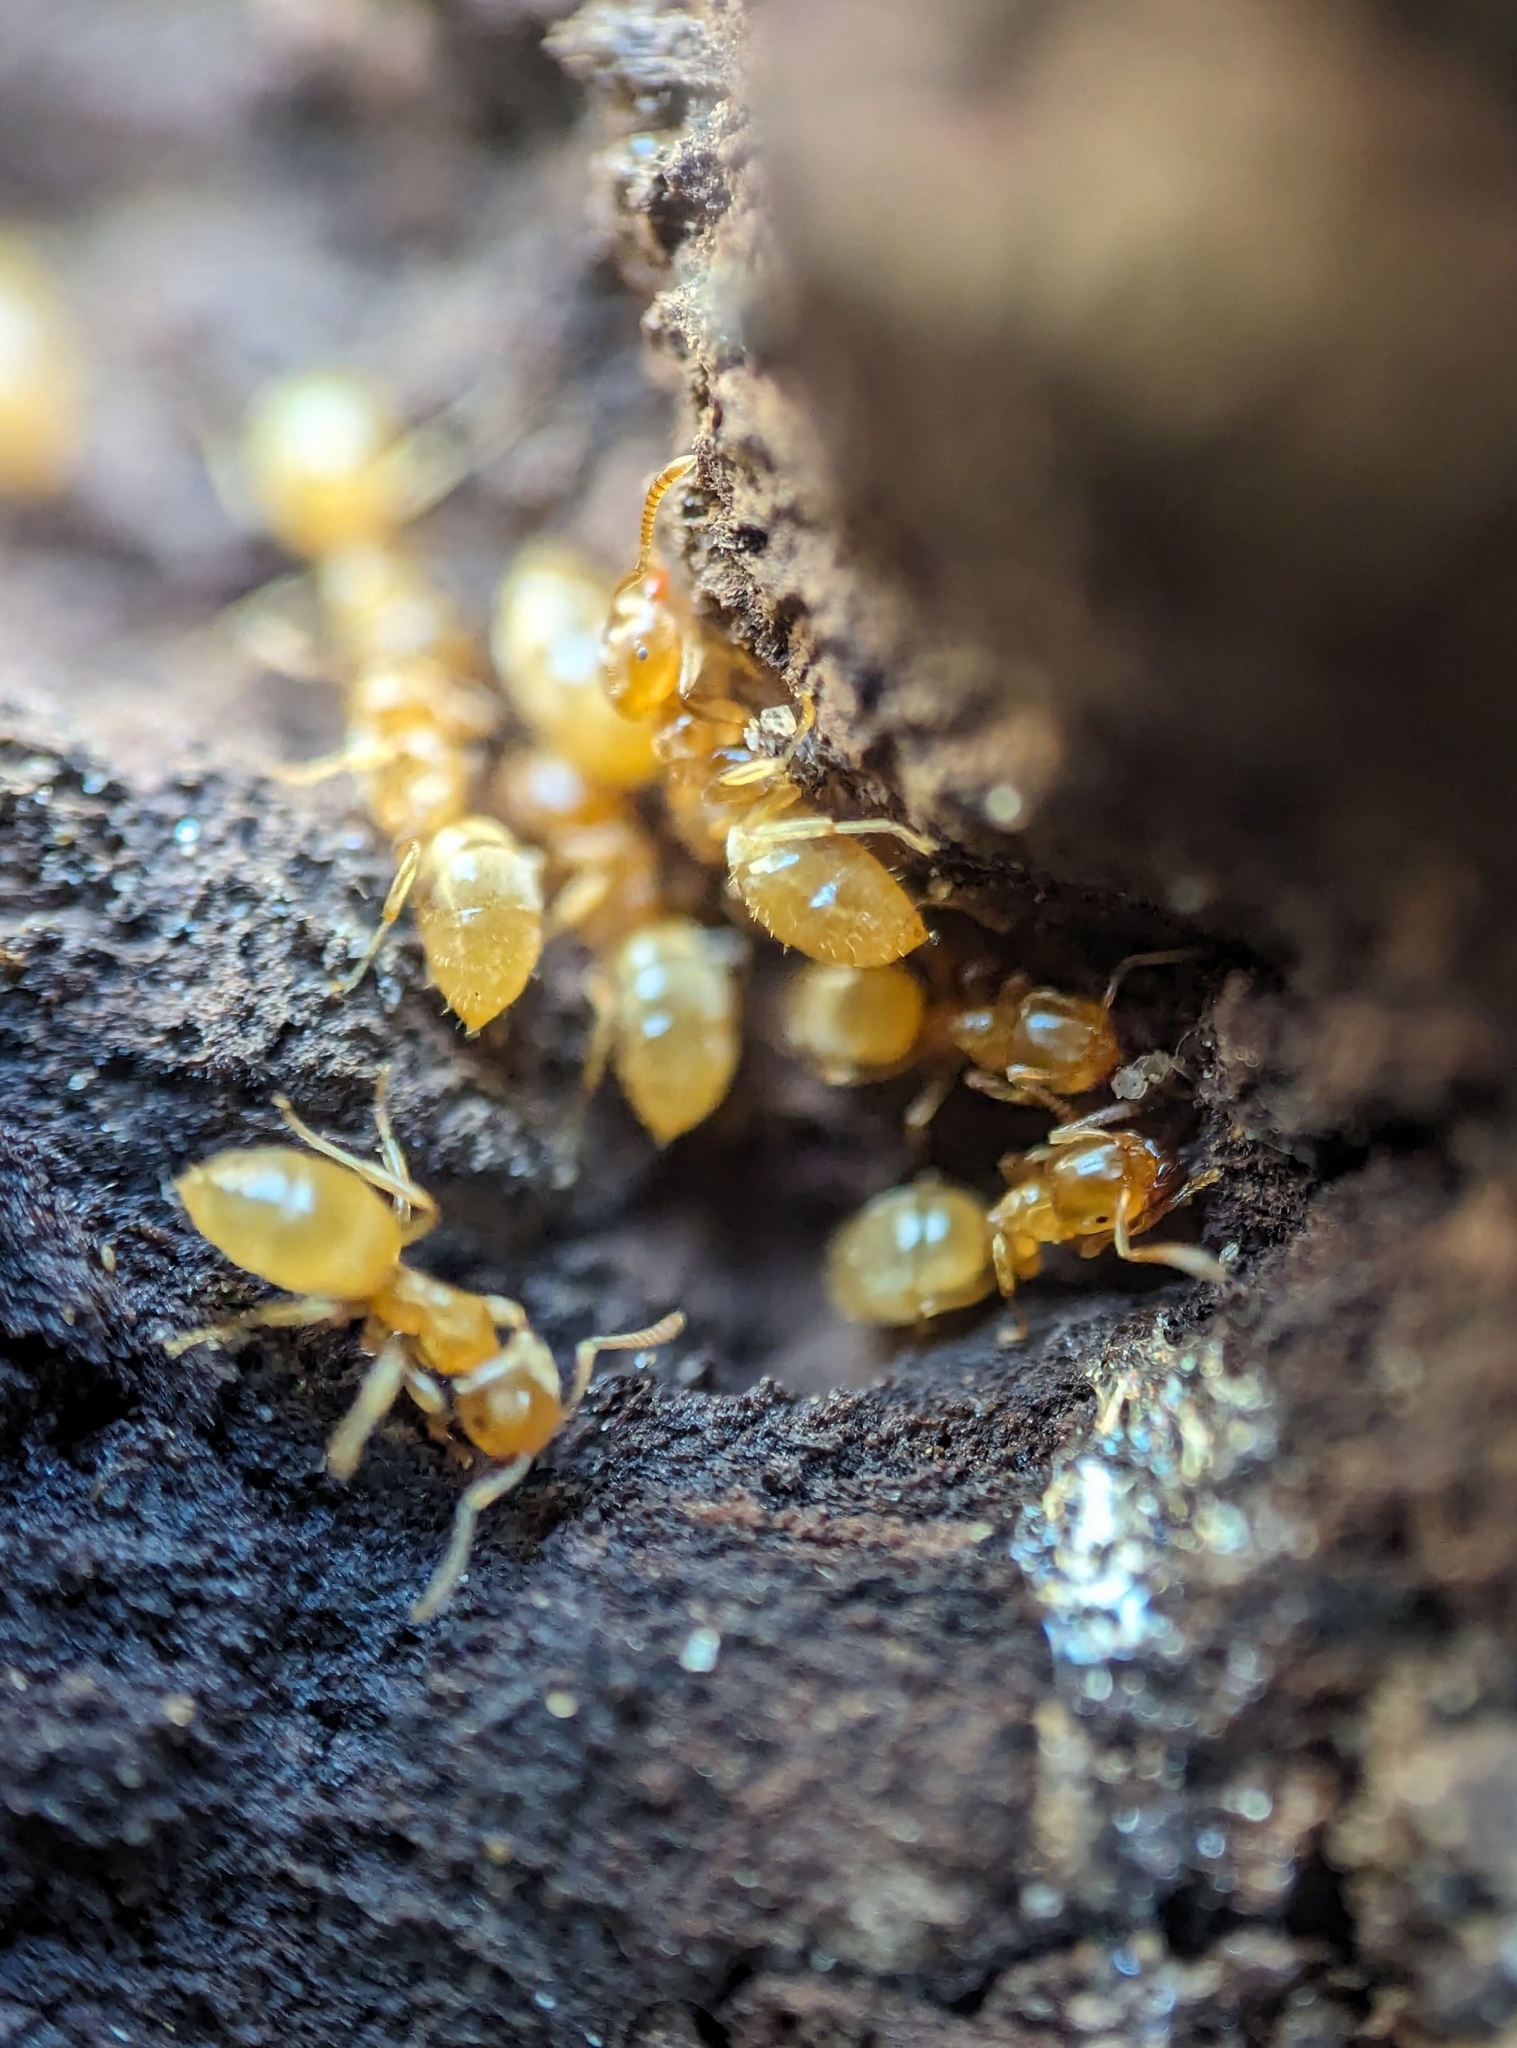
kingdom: Animalia
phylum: Arthropoda
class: Insecta
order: Hymenoptera
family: Formicidae
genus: Lasius
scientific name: Lasius nearcticus
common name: New world fuzzy ant
